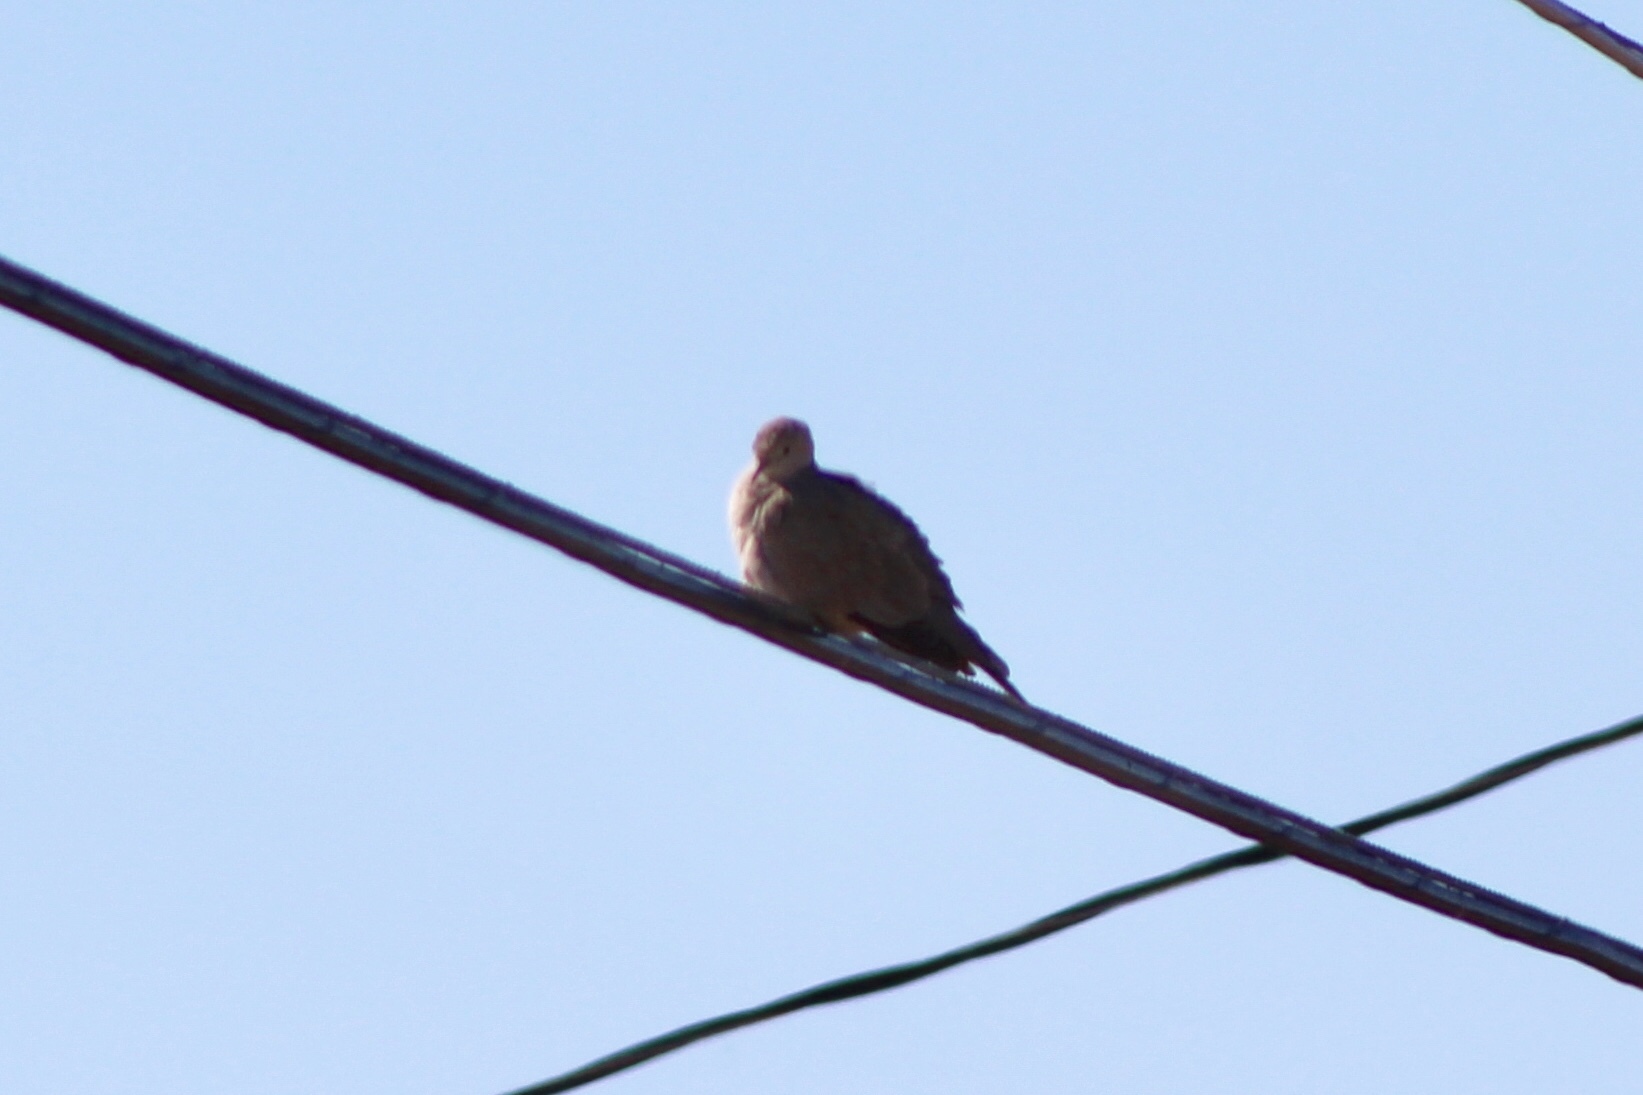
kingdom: Animalia
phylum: Chordata
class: Aves
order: Columbiformes
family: Columbidae
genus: Zenaida
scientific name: Zenaida macroura
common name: Mourning dove
